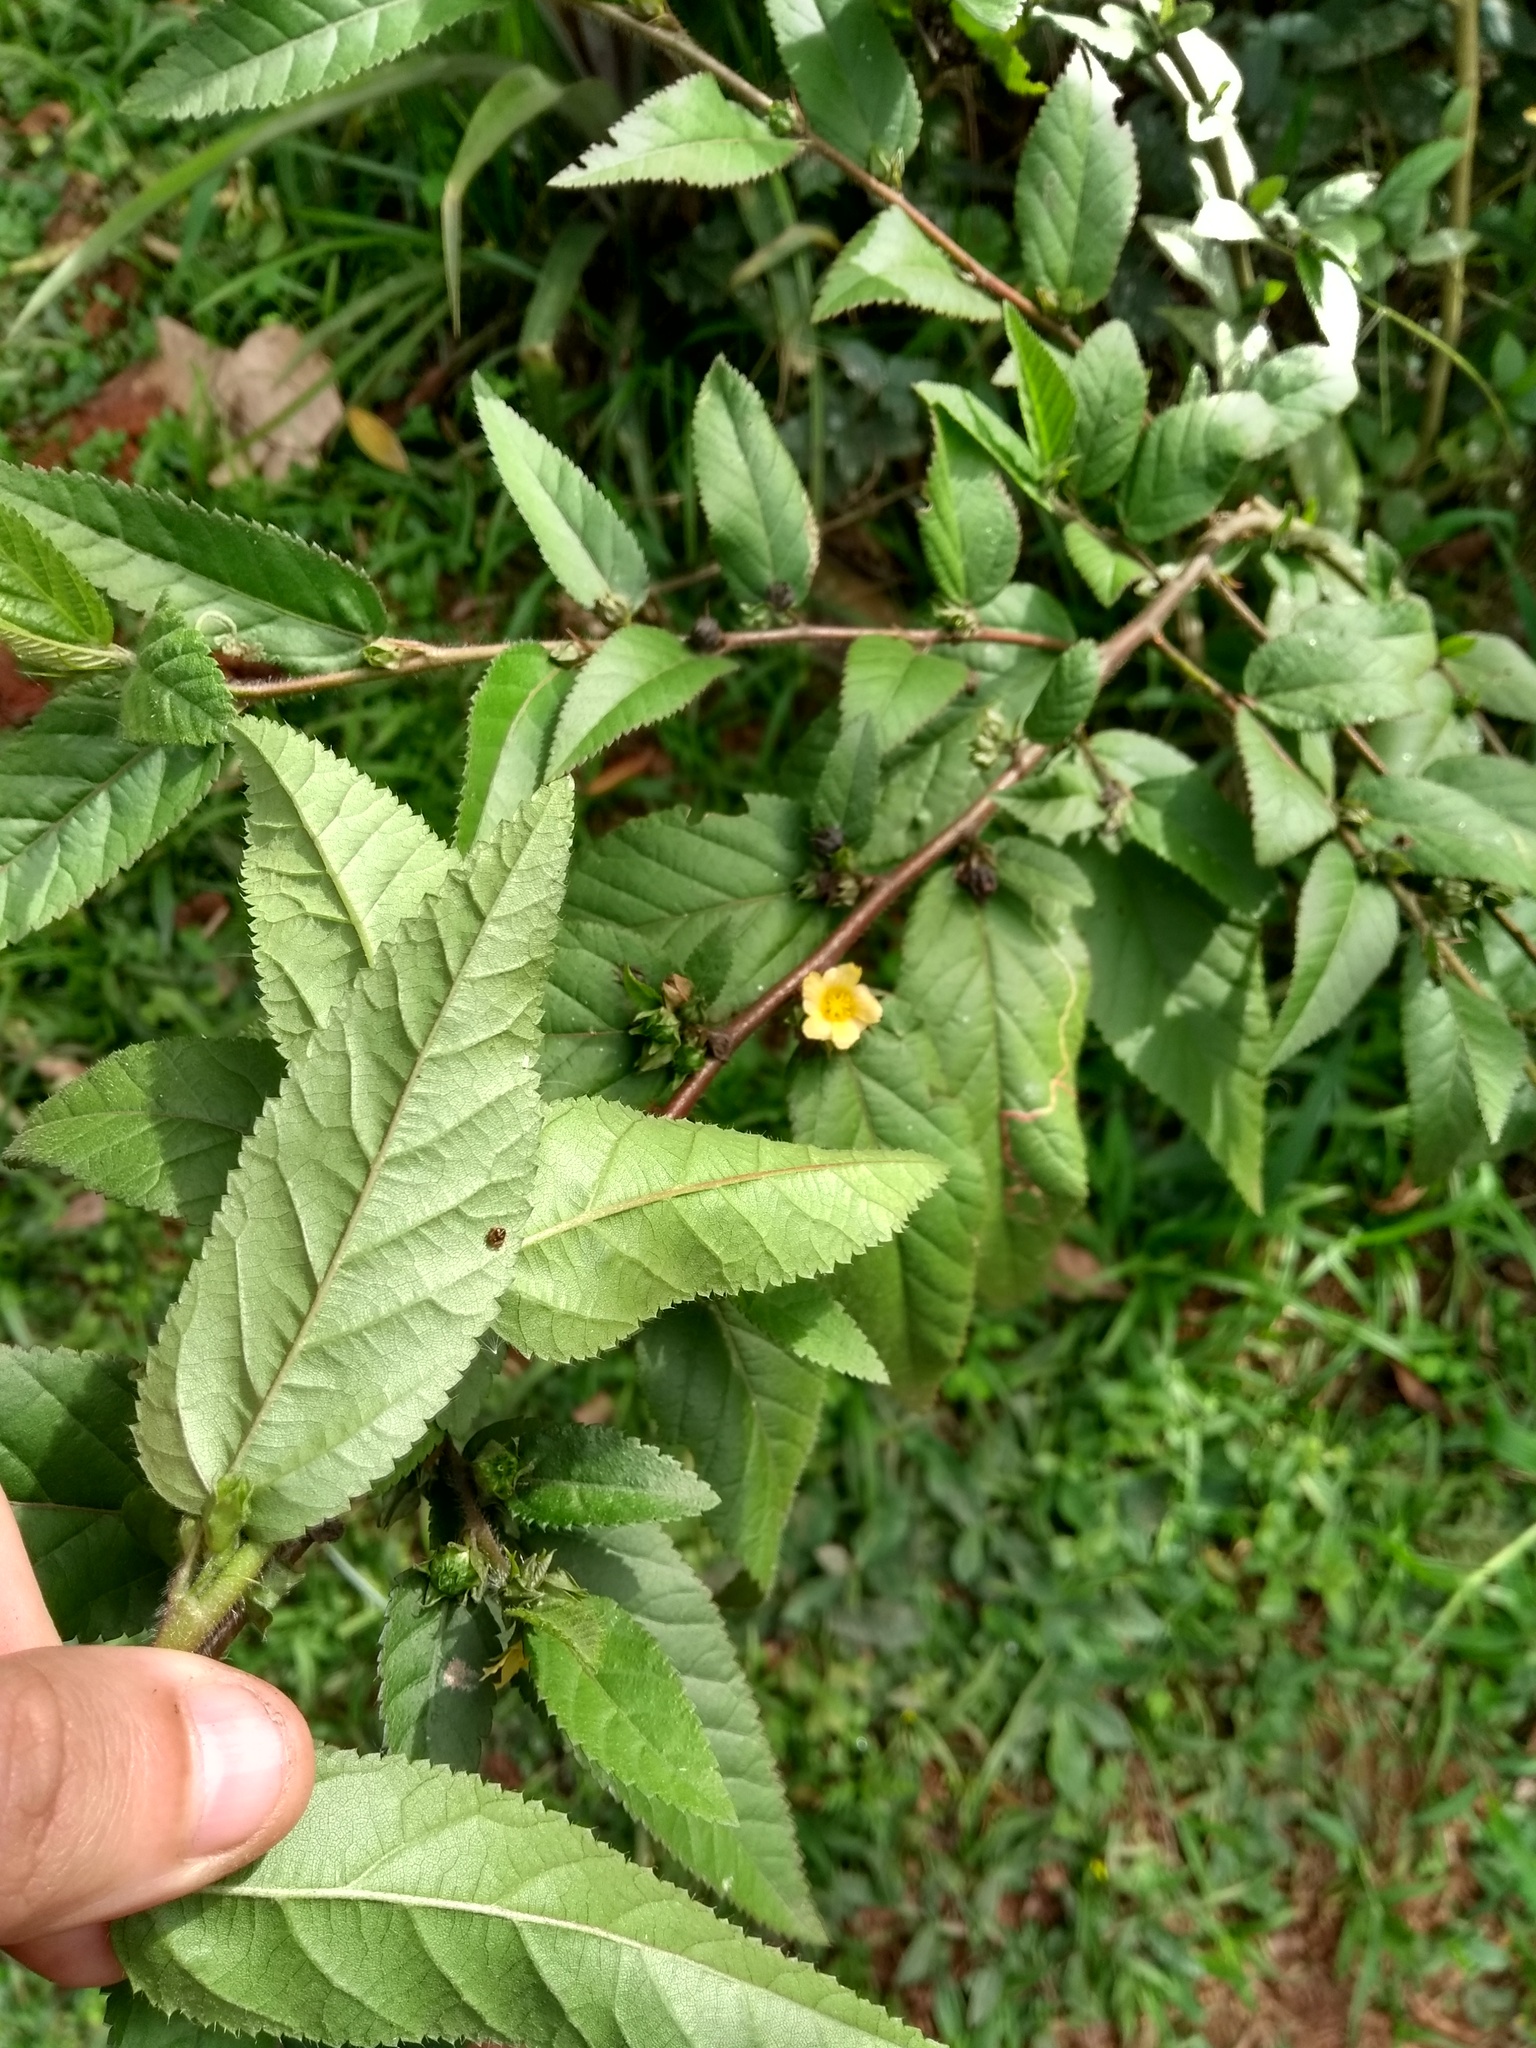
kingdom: Plantae
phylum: Tracheophyta
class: Magnoliopsida
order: Malvales
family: Malvaceae
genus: Sida
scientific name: Sida acuta
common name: Common wireweed
